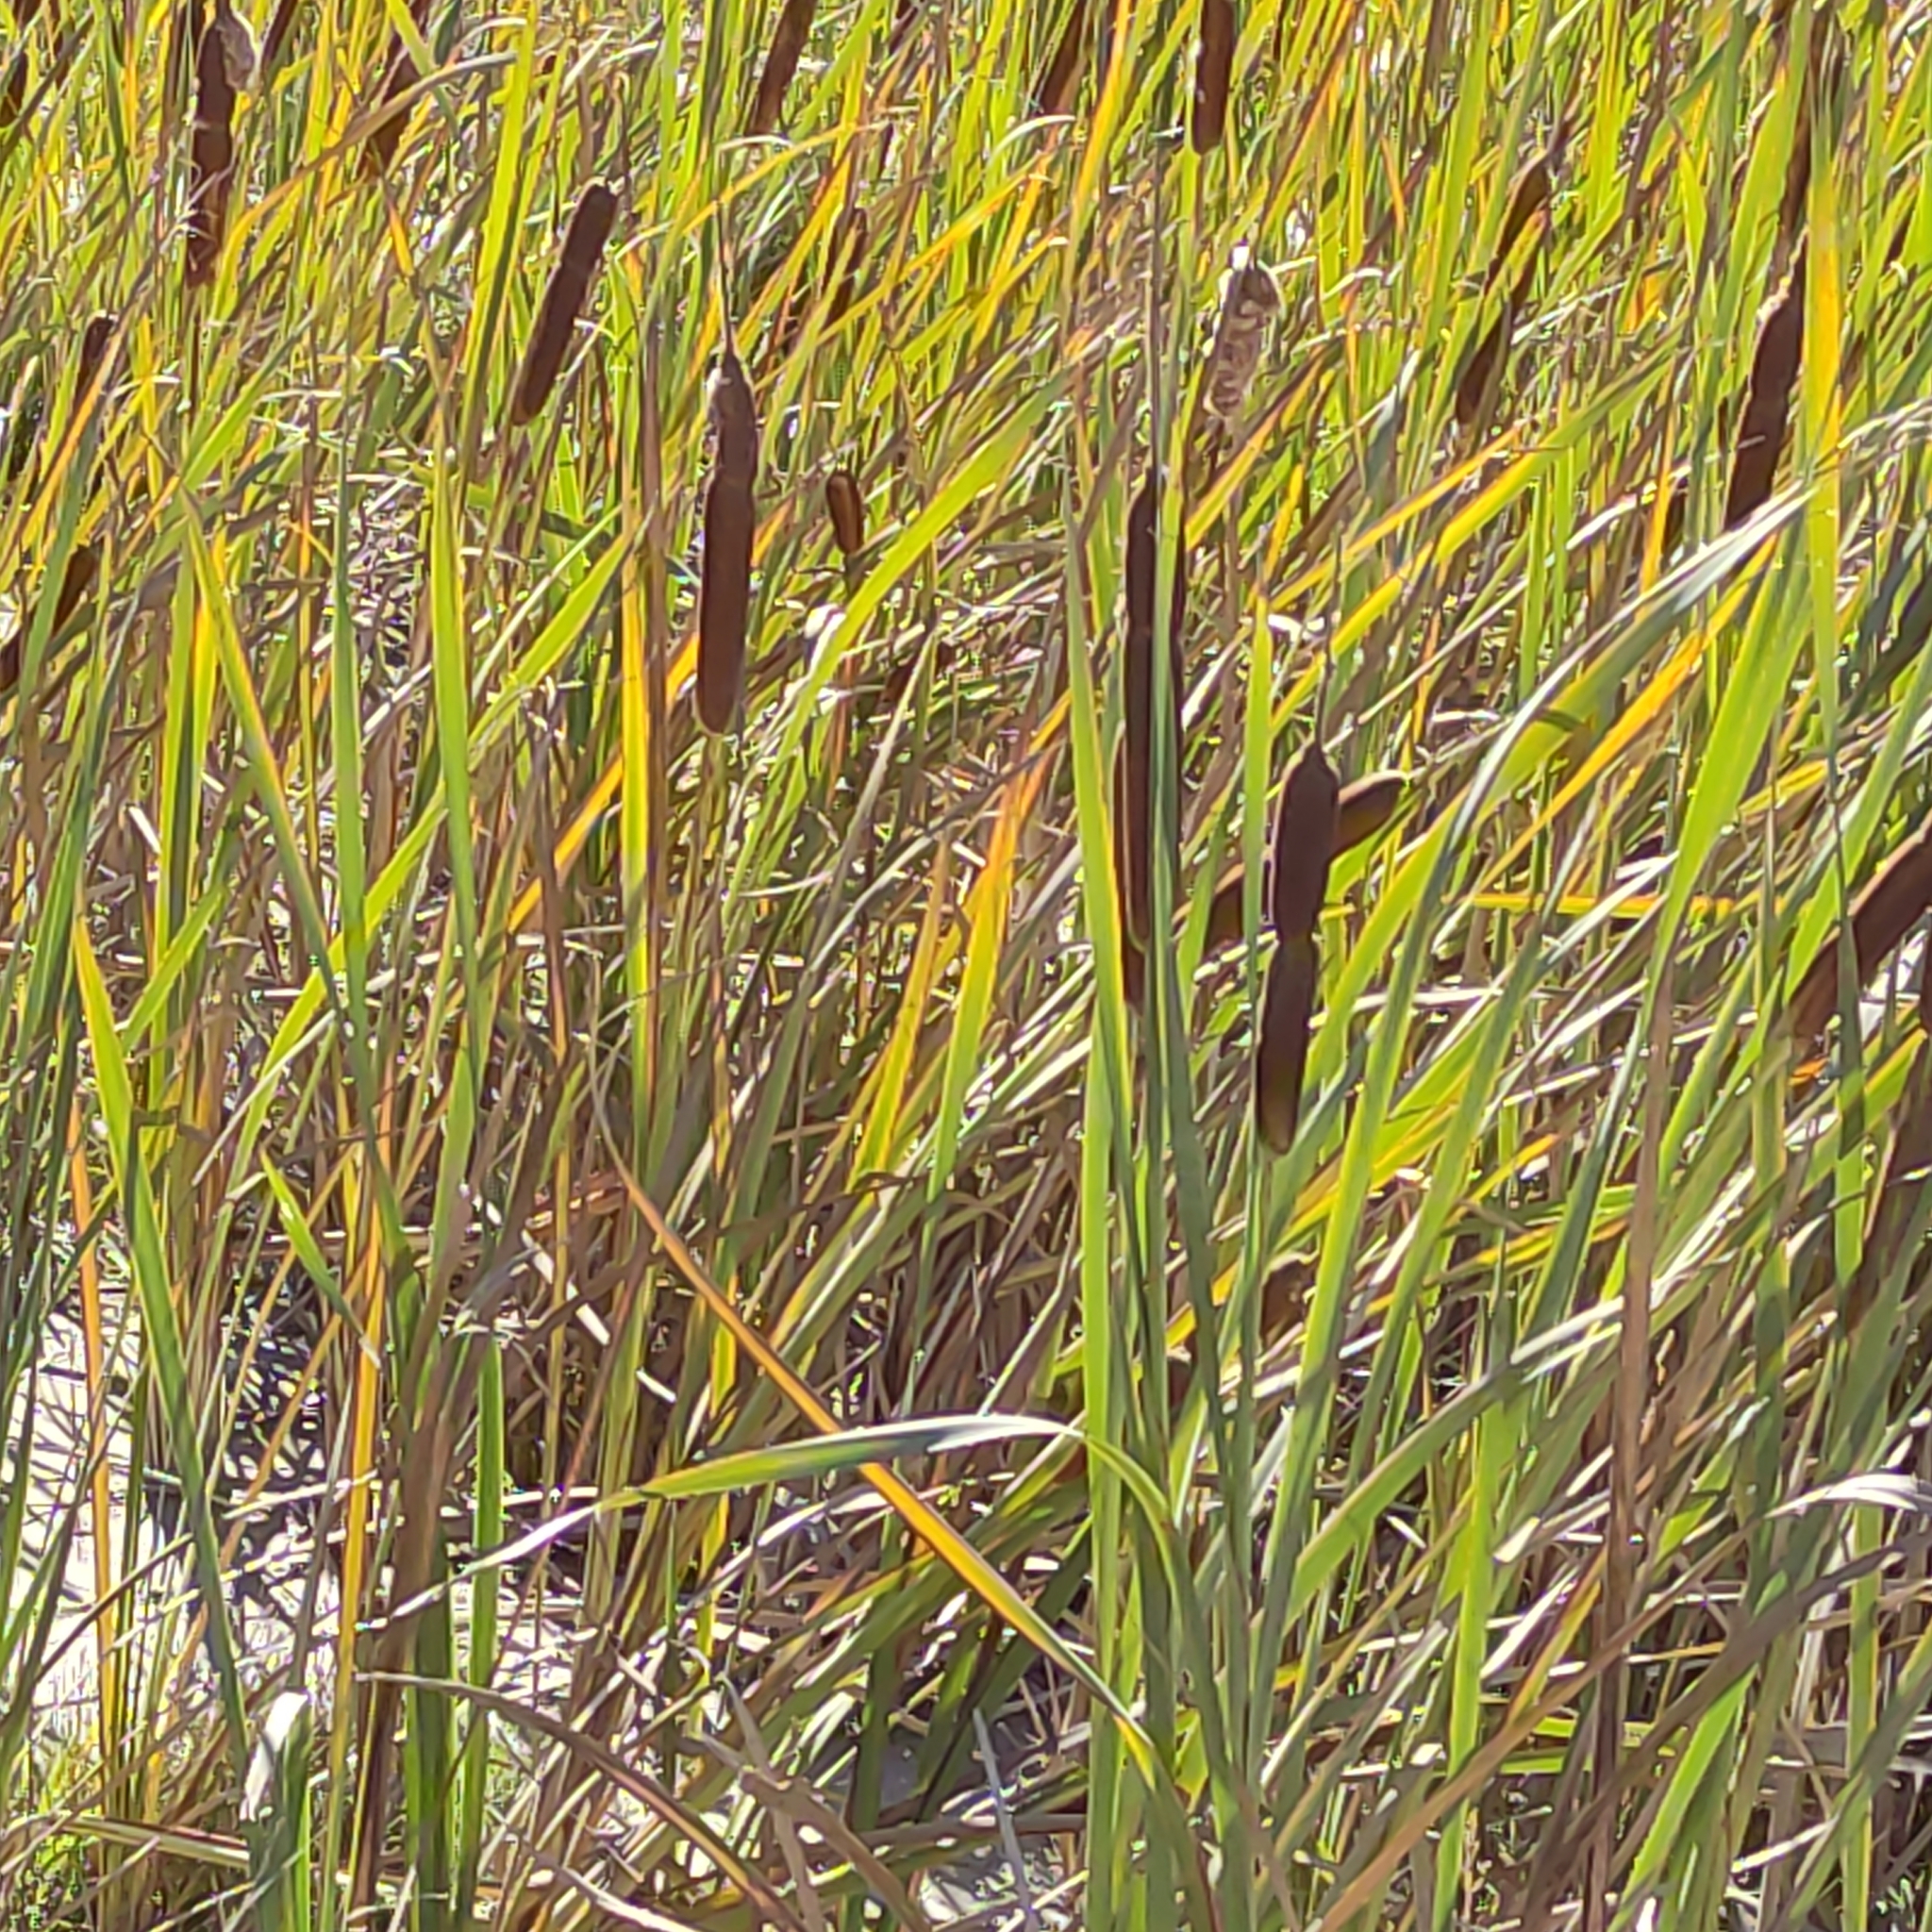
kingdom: Plantae
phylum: Tracheophyta
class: Liliopsida
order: Poales
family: Typhaceae
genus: Typha
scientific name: Typha orientalis
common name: Bullrush
